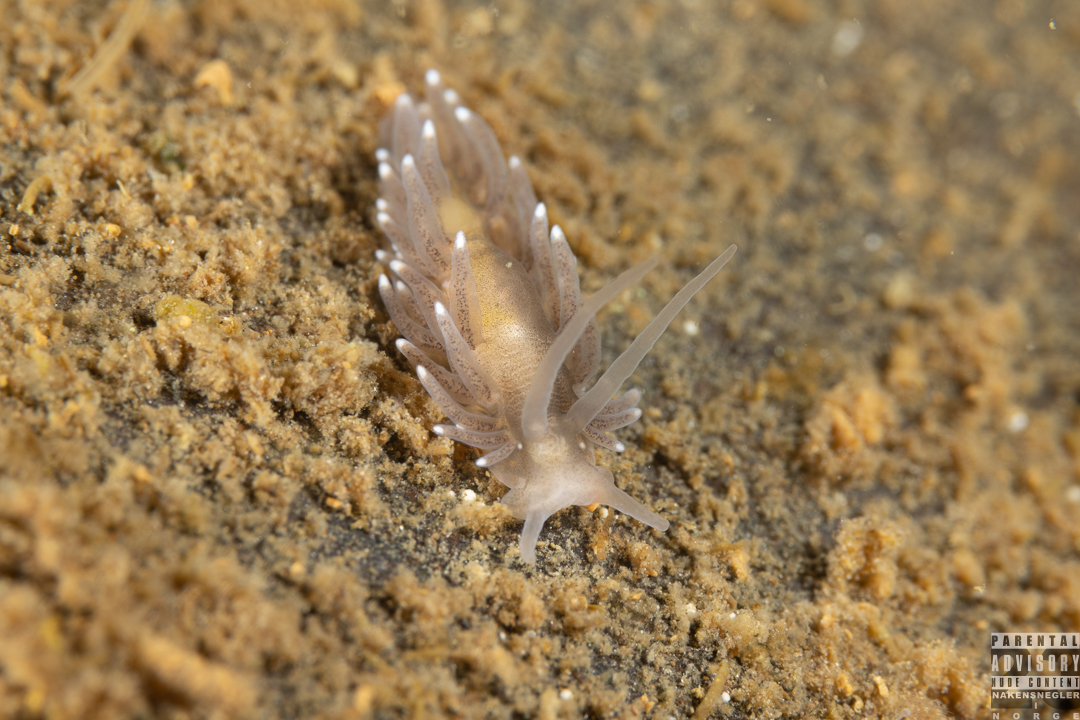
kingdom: Animalia
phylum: Mollusca
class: Gastropoda
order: Nudibranchia
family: Cuthonidae
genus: Bohuslania
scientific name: Bohuslania matsmichaeli
